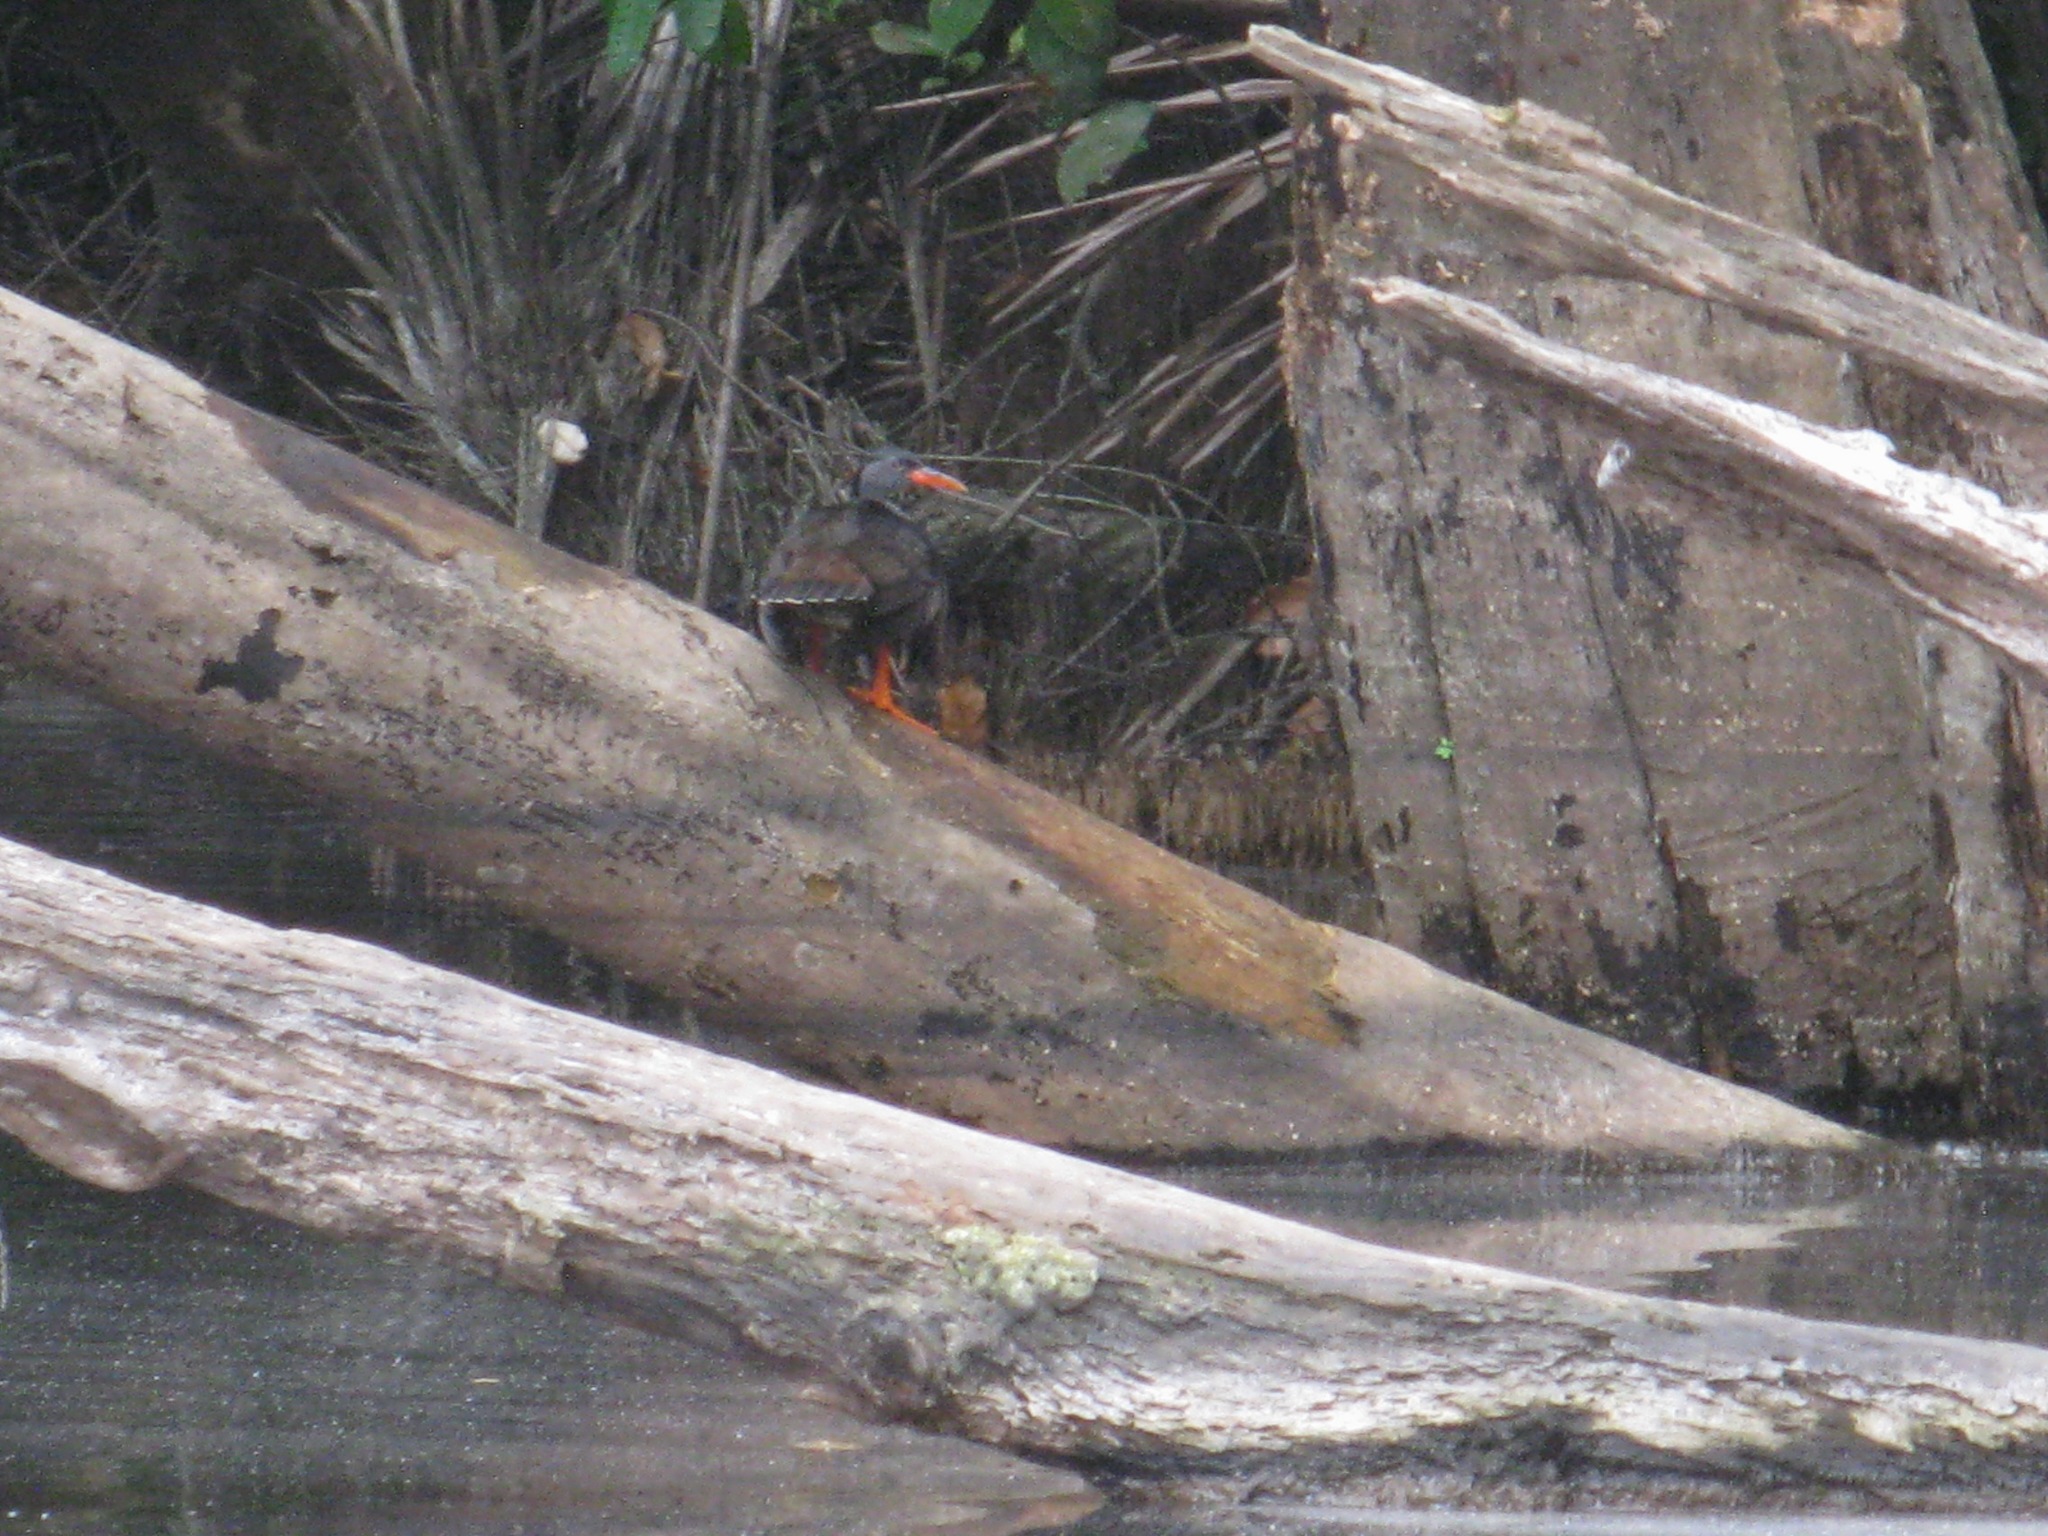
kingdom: Animalia
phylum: Chordata
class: Aves
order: Gruiformes
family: Heliornithidae
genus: Podica
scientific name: Podica senegalensis
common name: African finfoot
